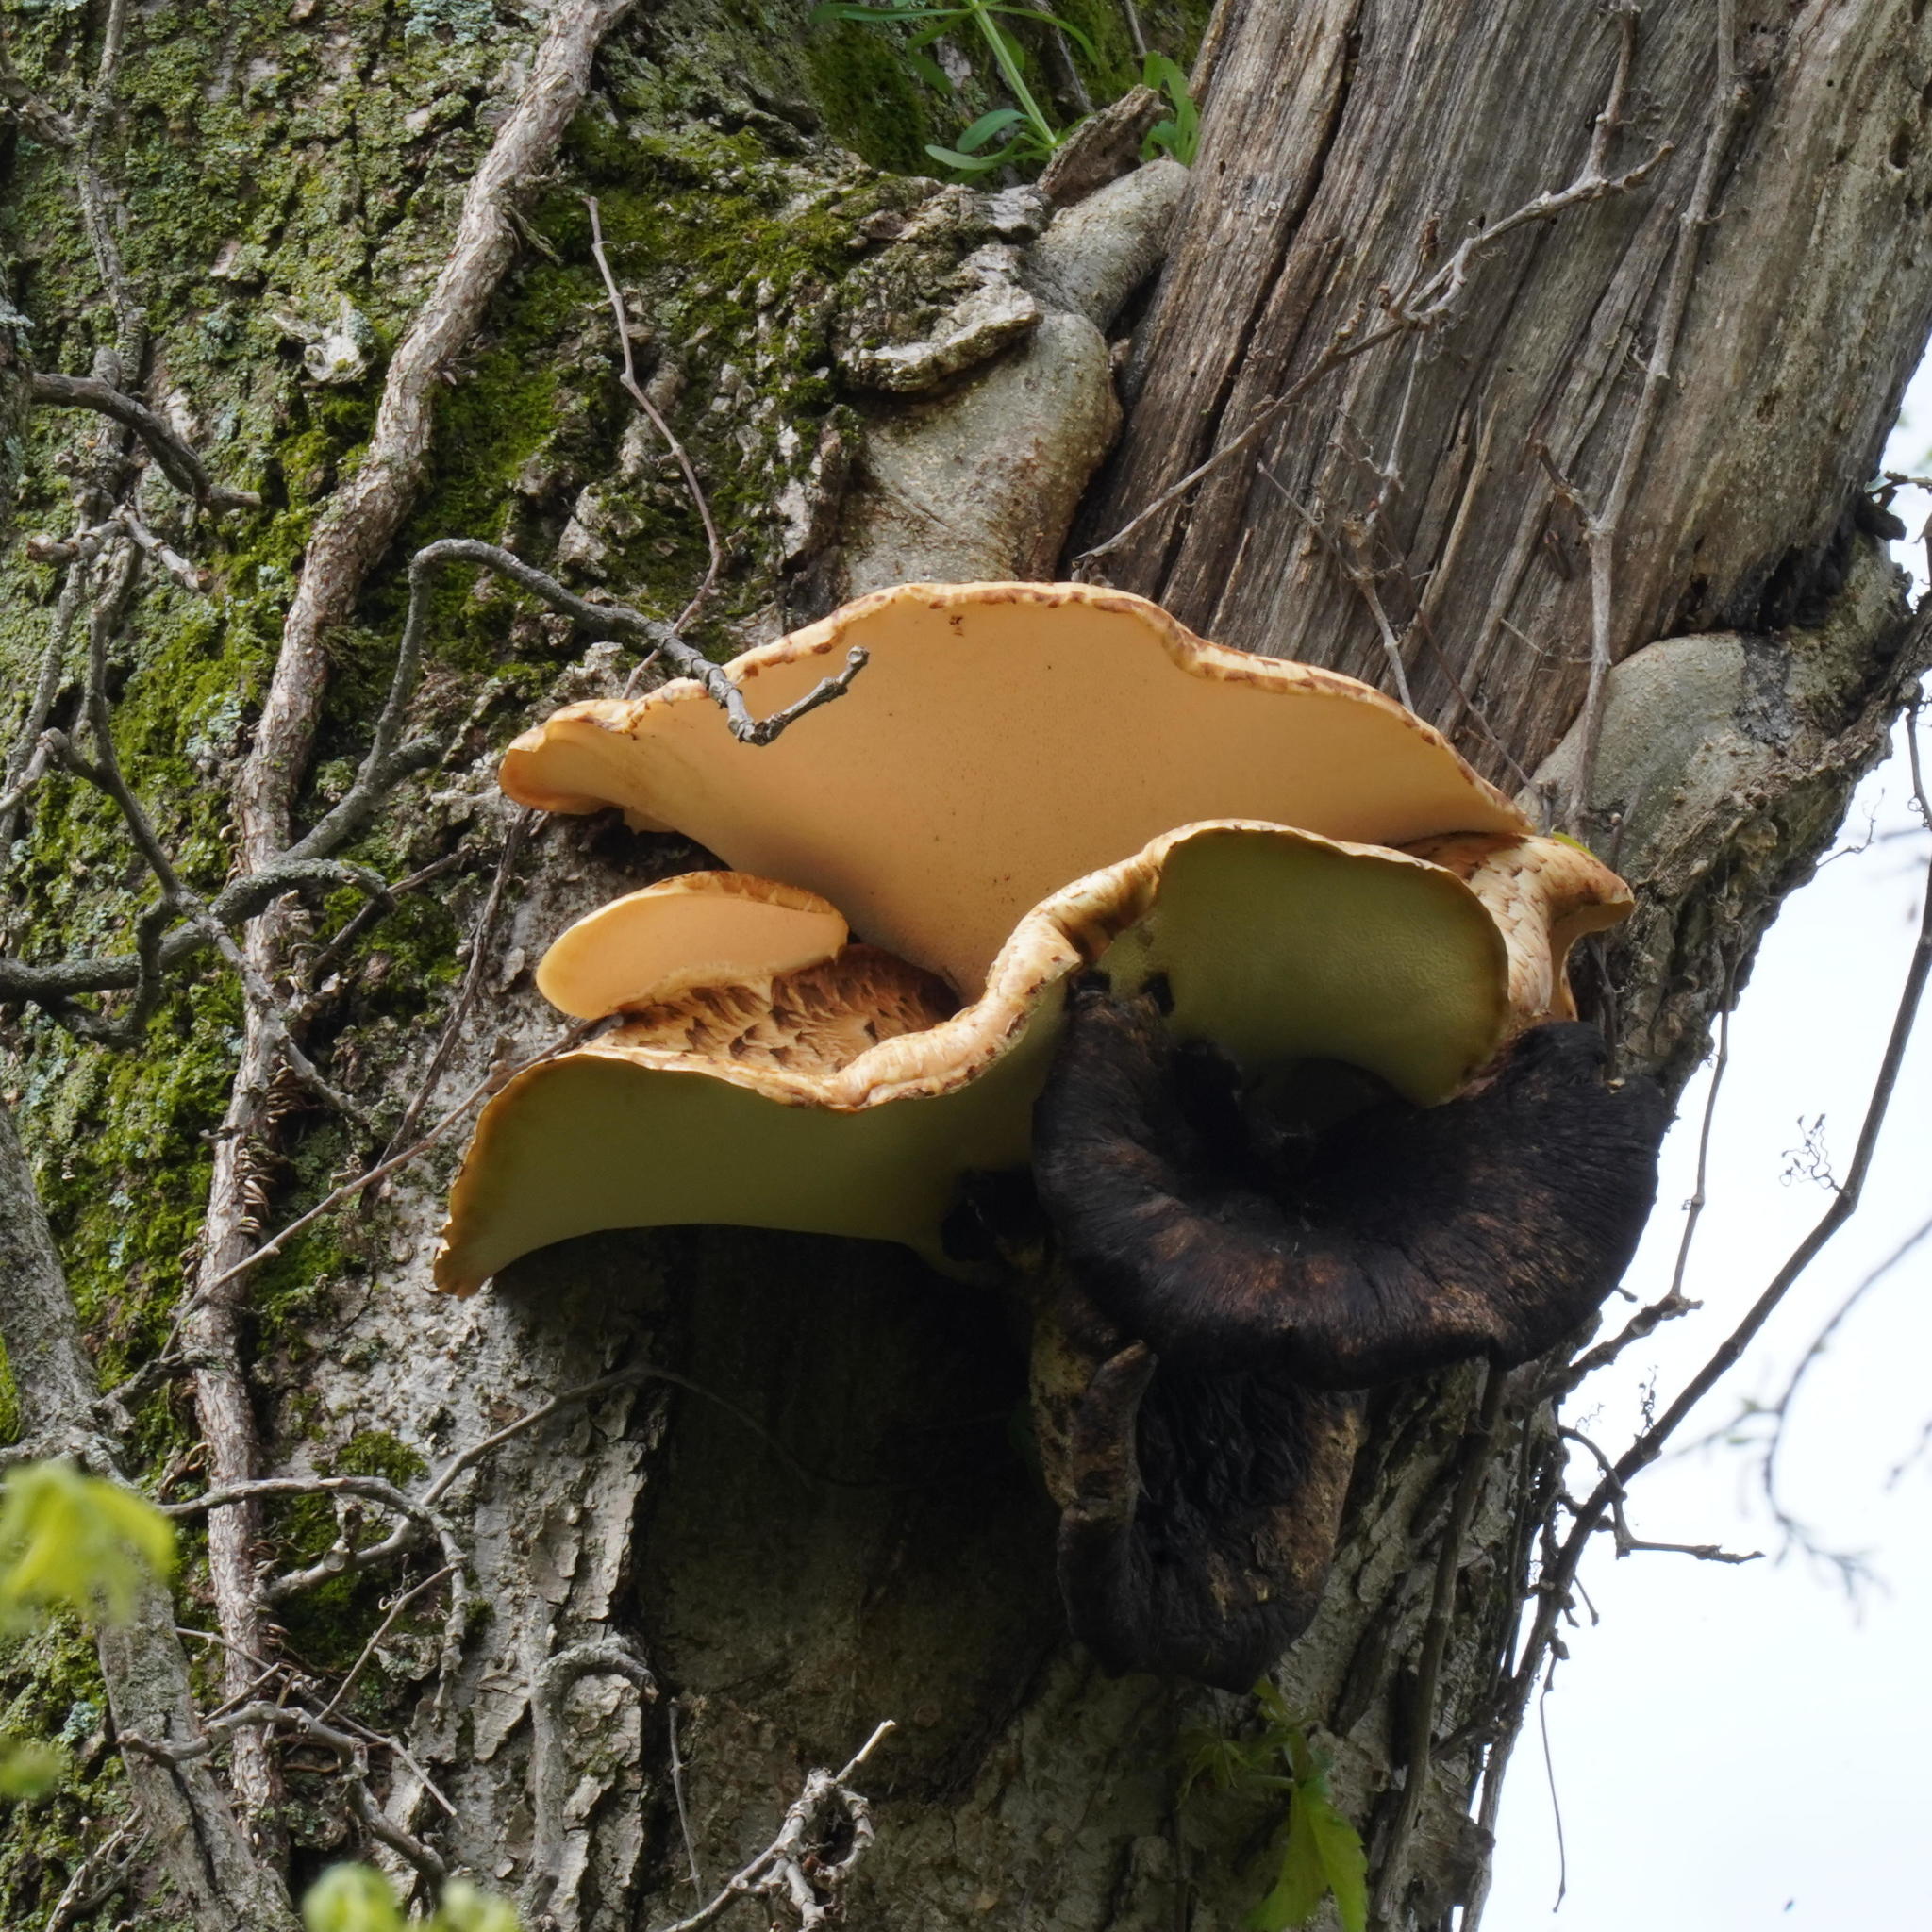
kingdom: Fungi
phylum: Basidiomycota
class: Agaricomycetes
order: Polyporales
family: Polyporaceae
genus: Cerioporus
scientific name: Cerioporus squamosus
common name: Dryad's saddle
